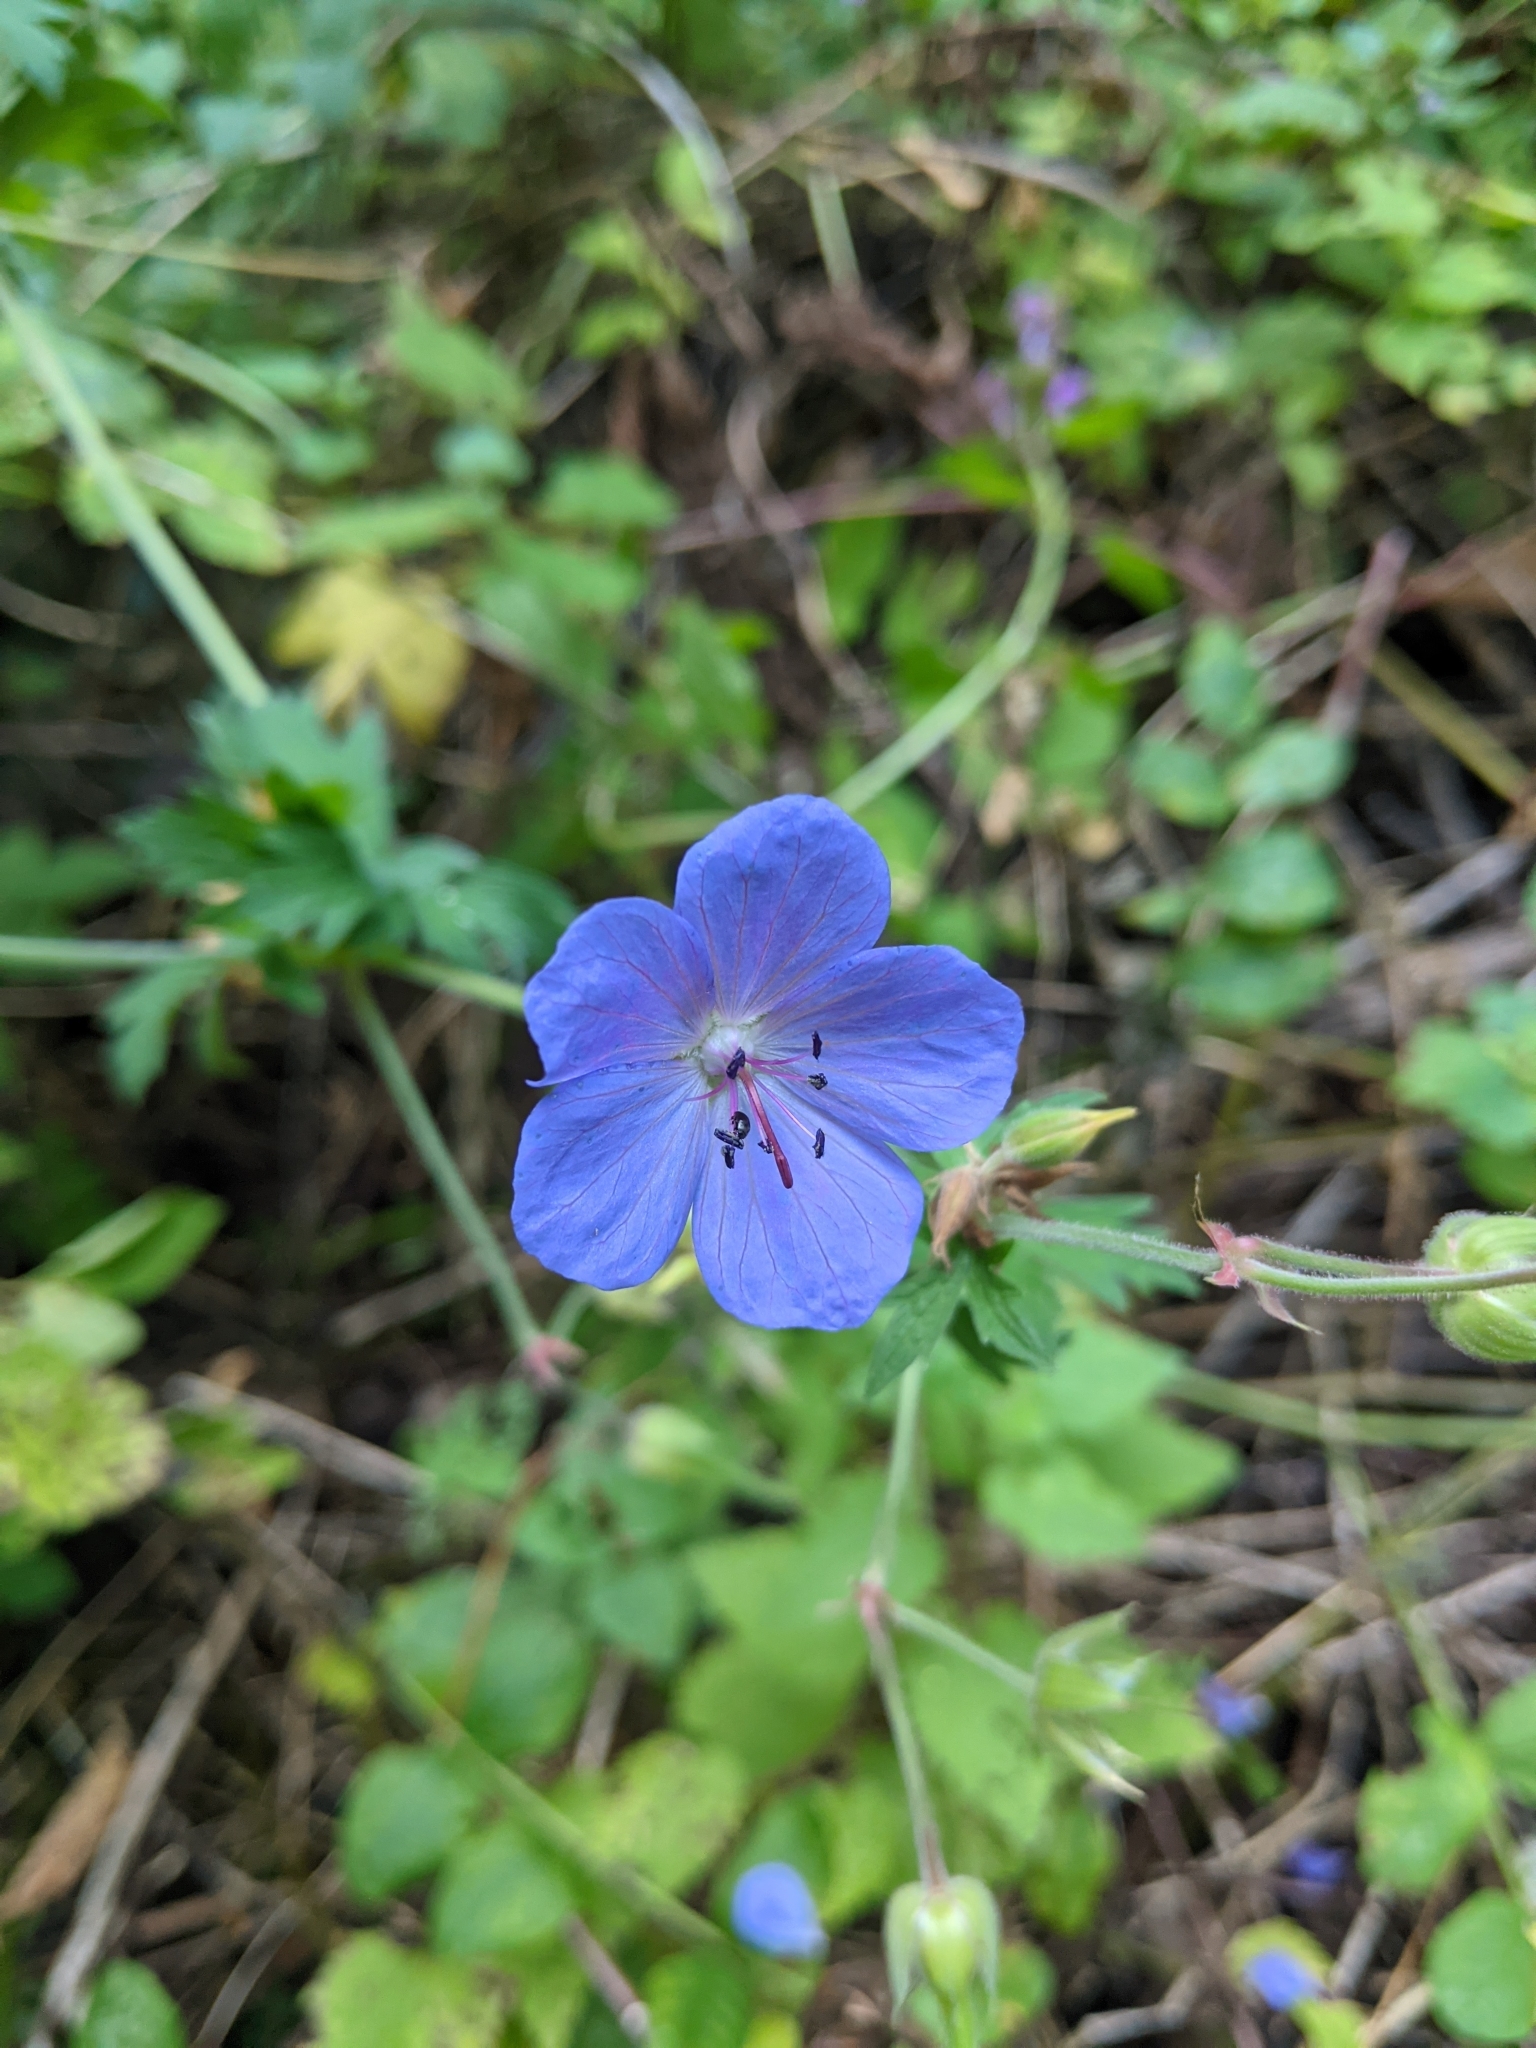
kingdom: Plantae
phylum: Tracheophyta
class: Magnoliopsida
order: Geraniales
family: Geraniaceae
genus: Geranium
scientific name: Geranium pratense
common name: Meadow crane's-bill
